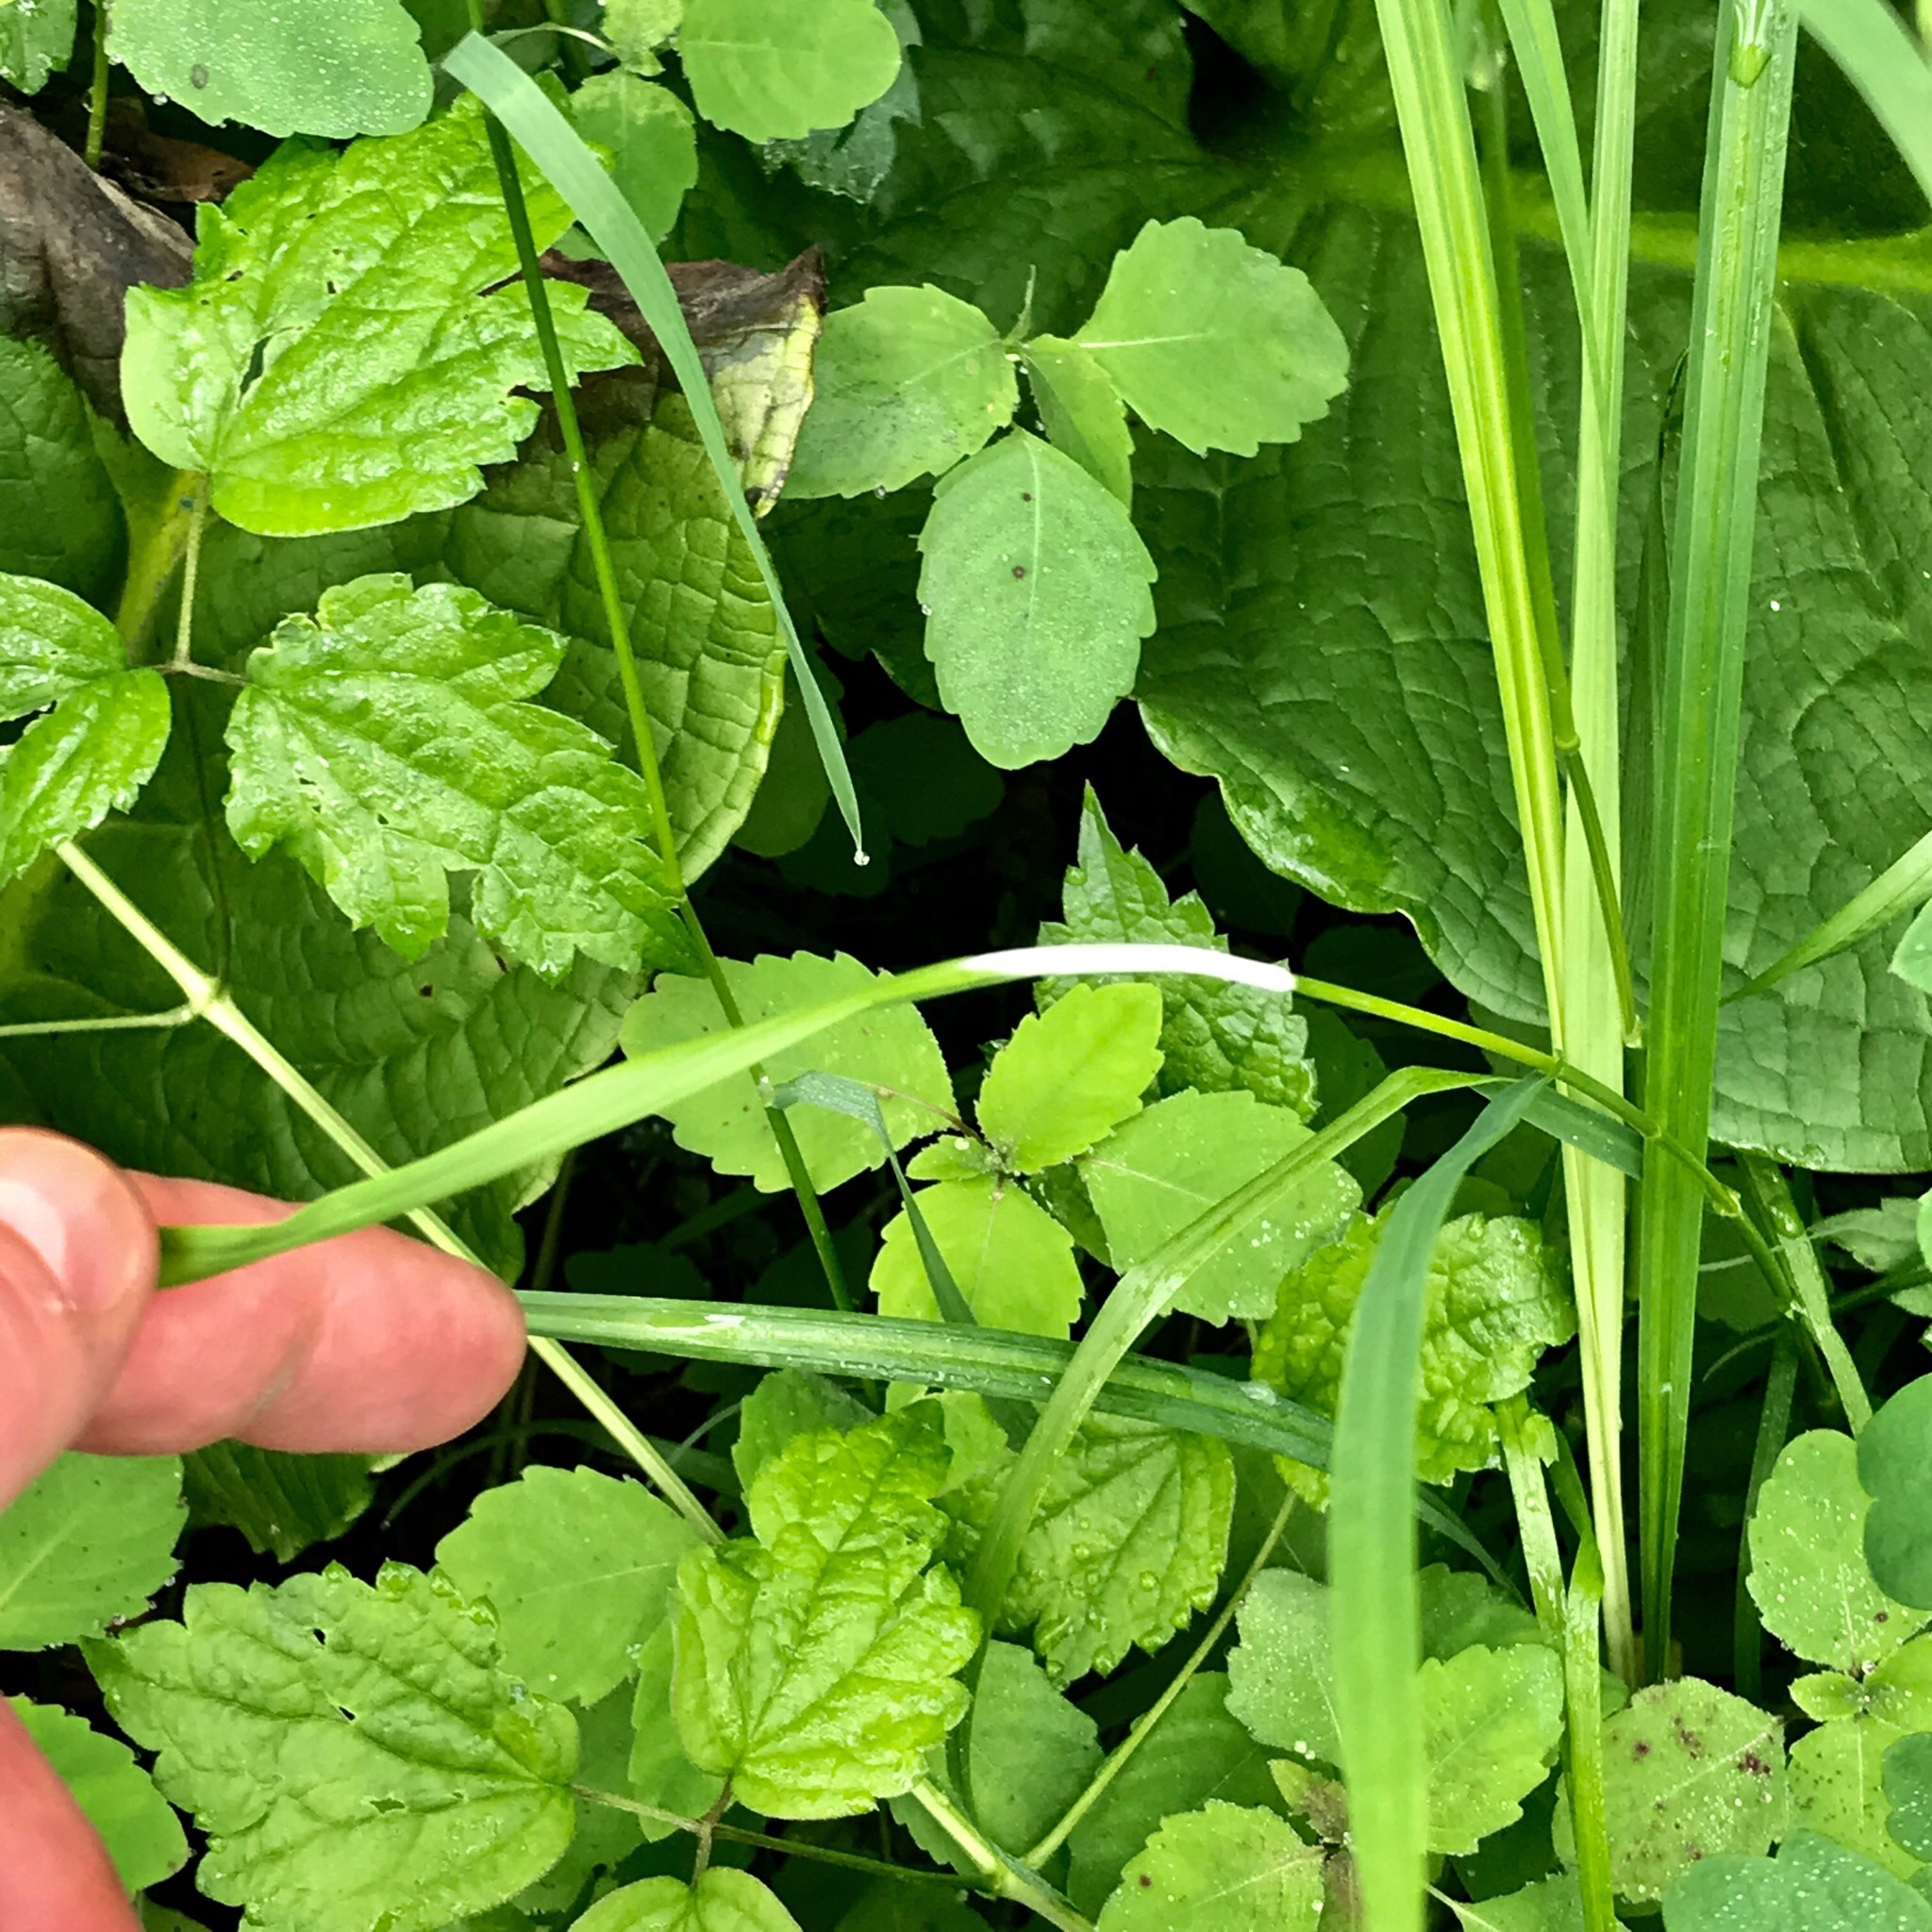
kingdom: Fungi
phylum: Ascomycota
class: Sordariomycetes
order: Hypocreales
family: Clavicipitaceae
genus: Epichloe
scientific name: Epichloe glyceriae
